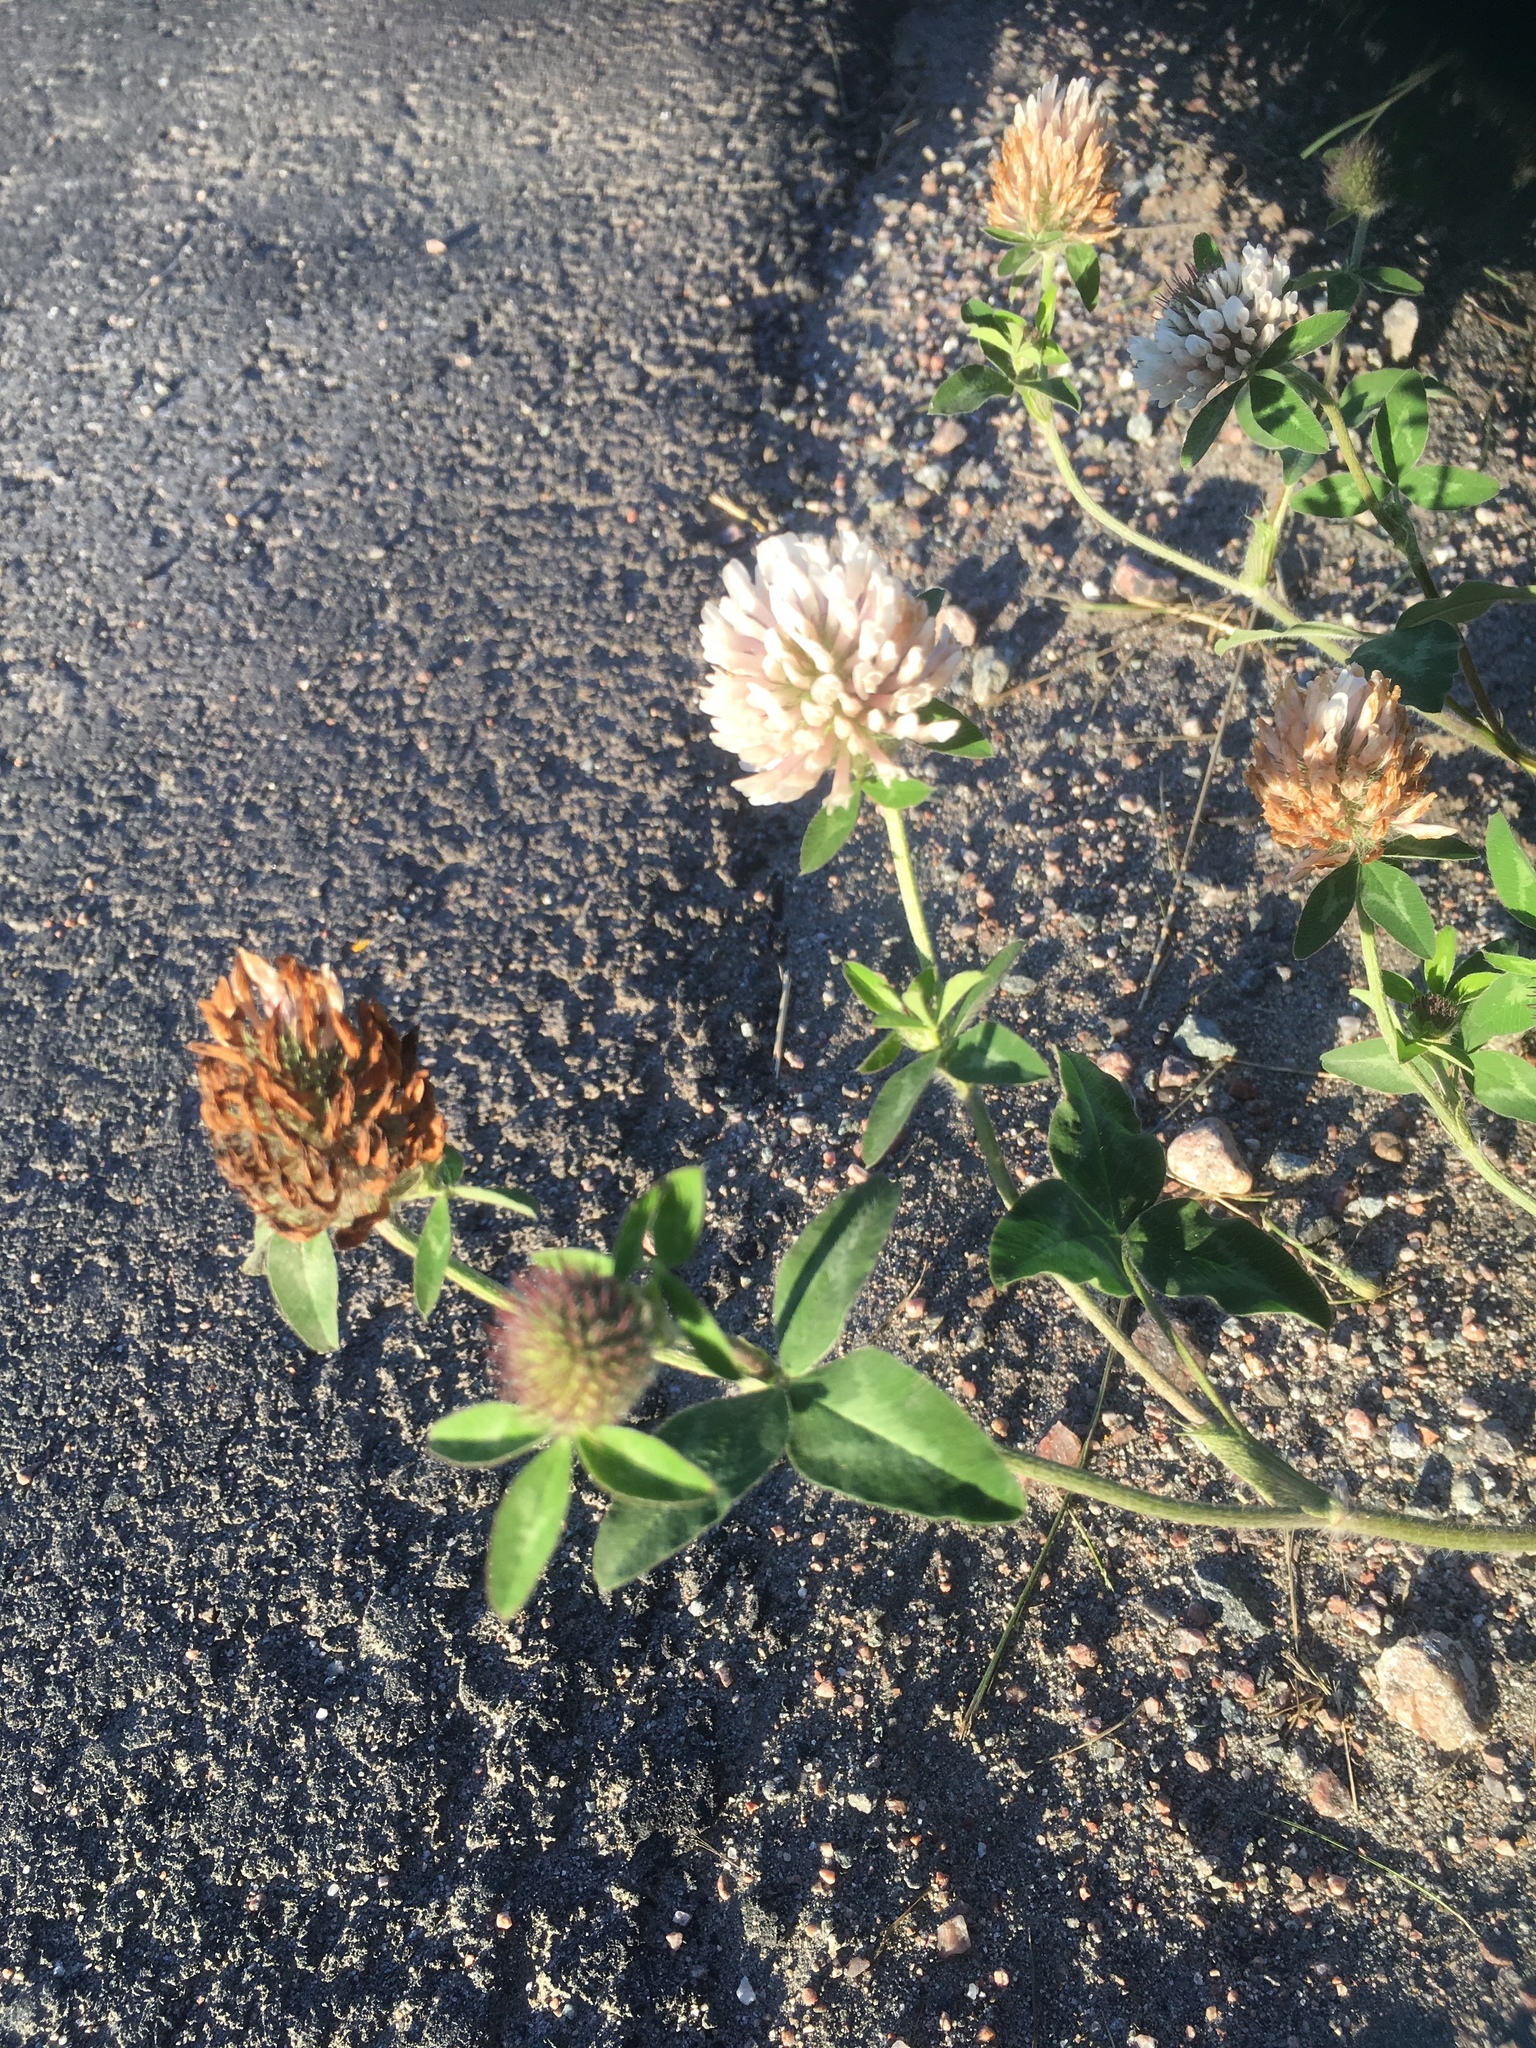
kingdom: Plantae
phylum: Tracheophyta
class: Magnoliopsida
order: Fabales
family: Fabaceae
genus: Trifolium
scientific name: Trifolium pratense
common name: Red clover
